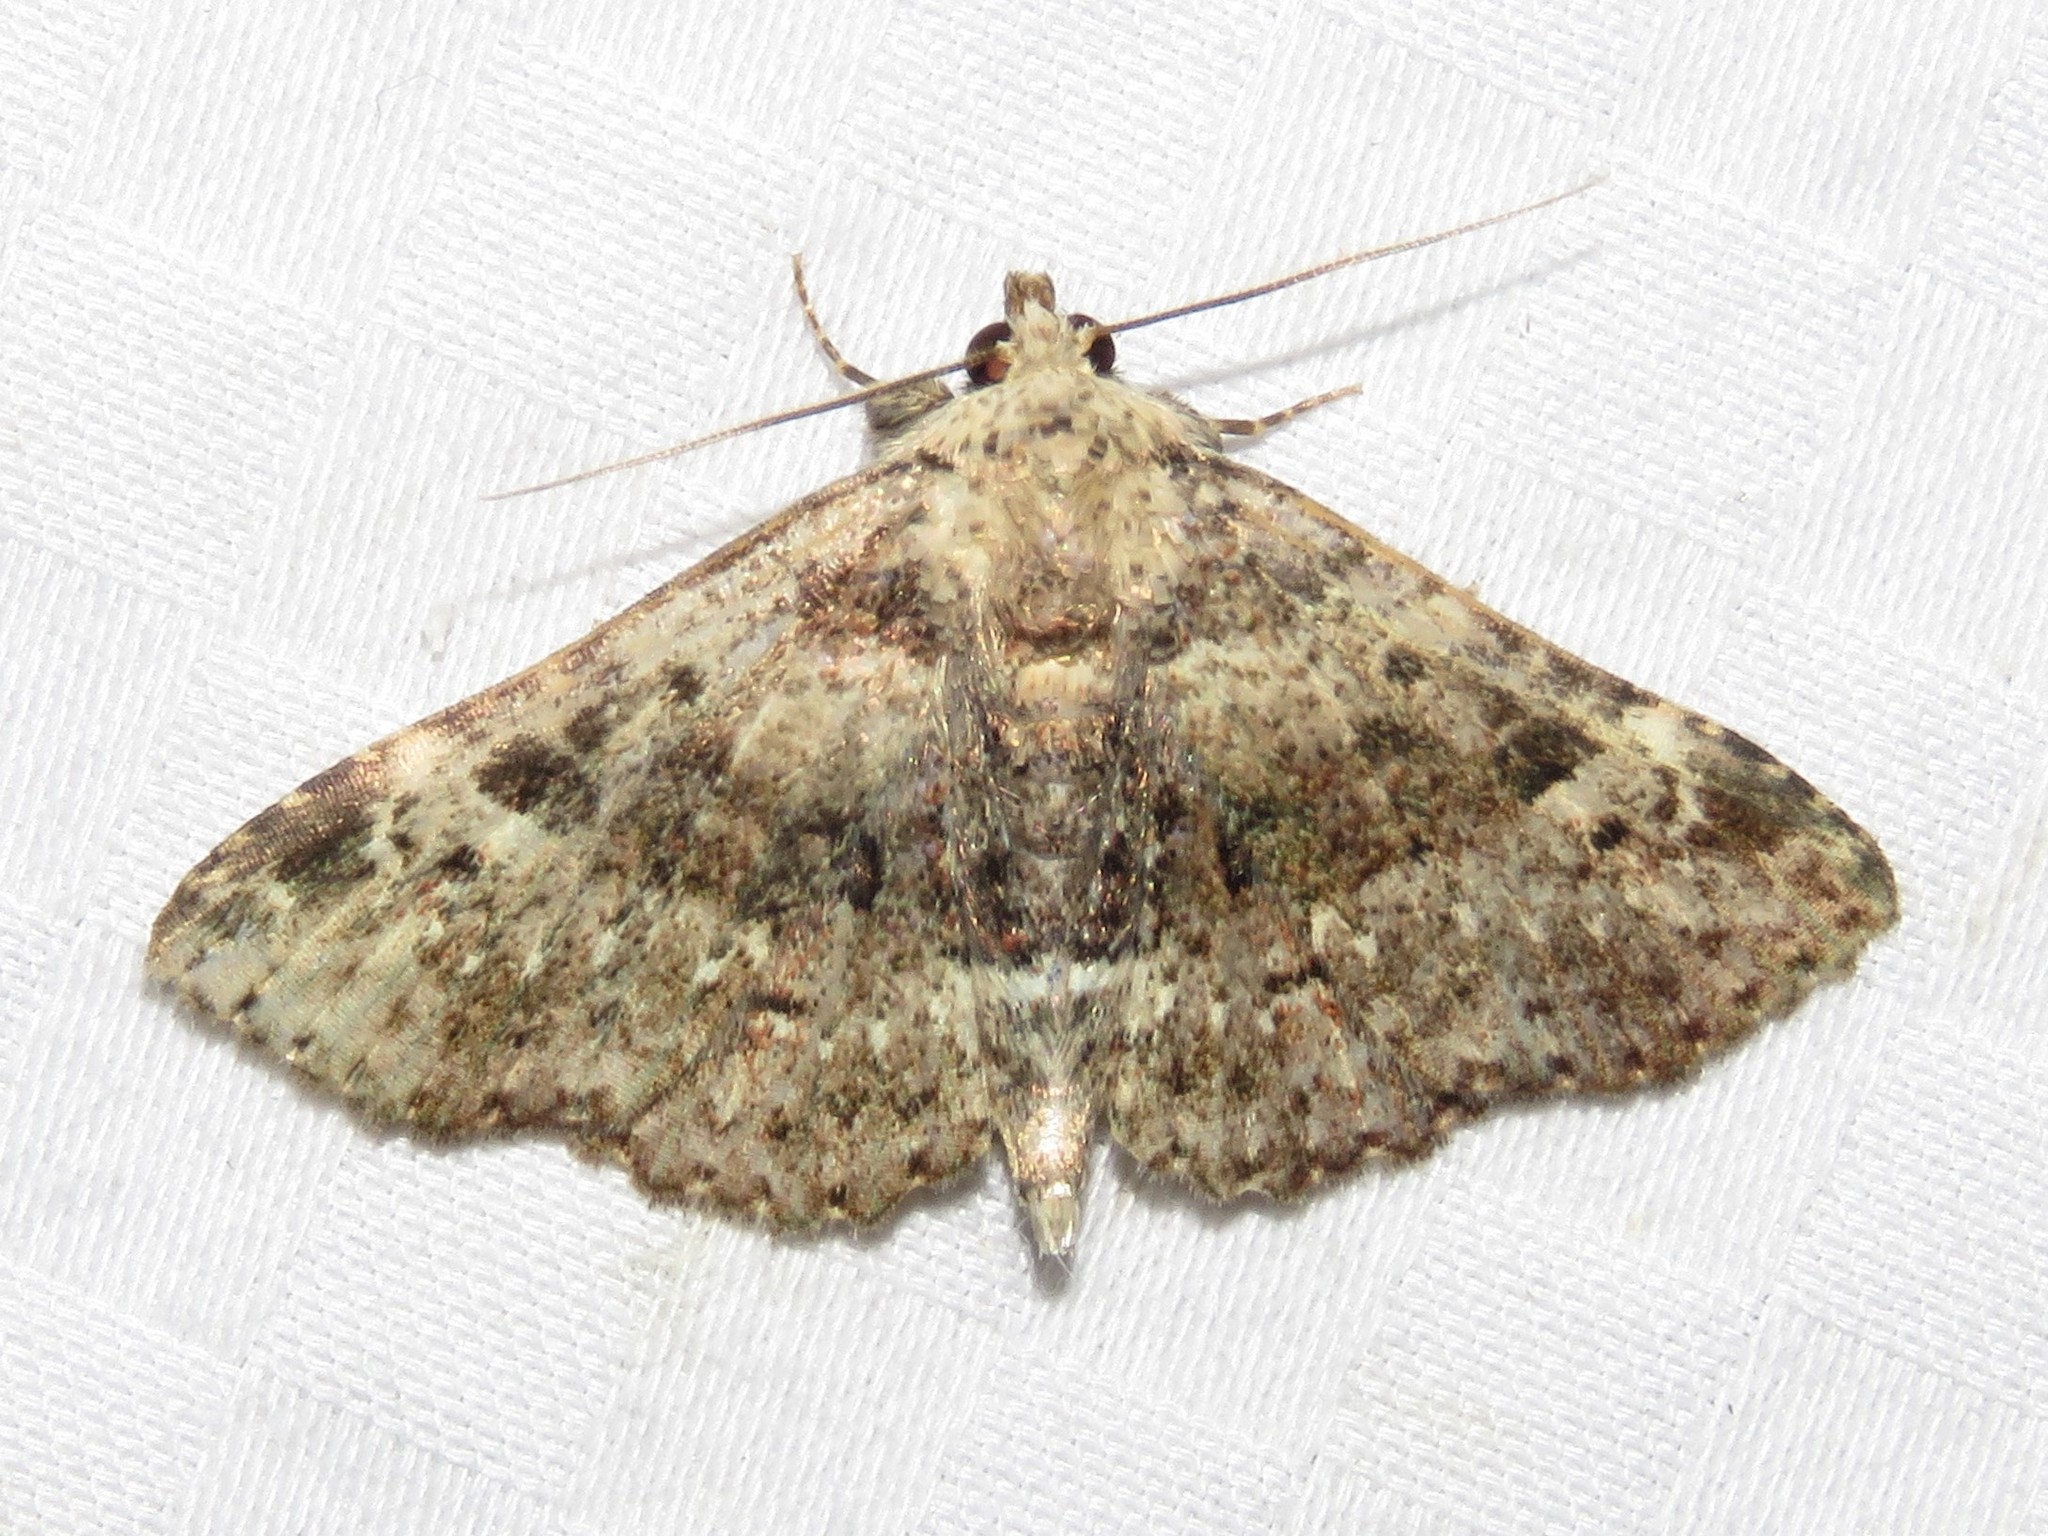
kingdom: Animalia
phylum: Arthropoda
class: Insecta
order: Lepidoptera
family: Erebidae
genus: Metalectra
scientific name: Metalectra discalis
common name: Common fungus moth
